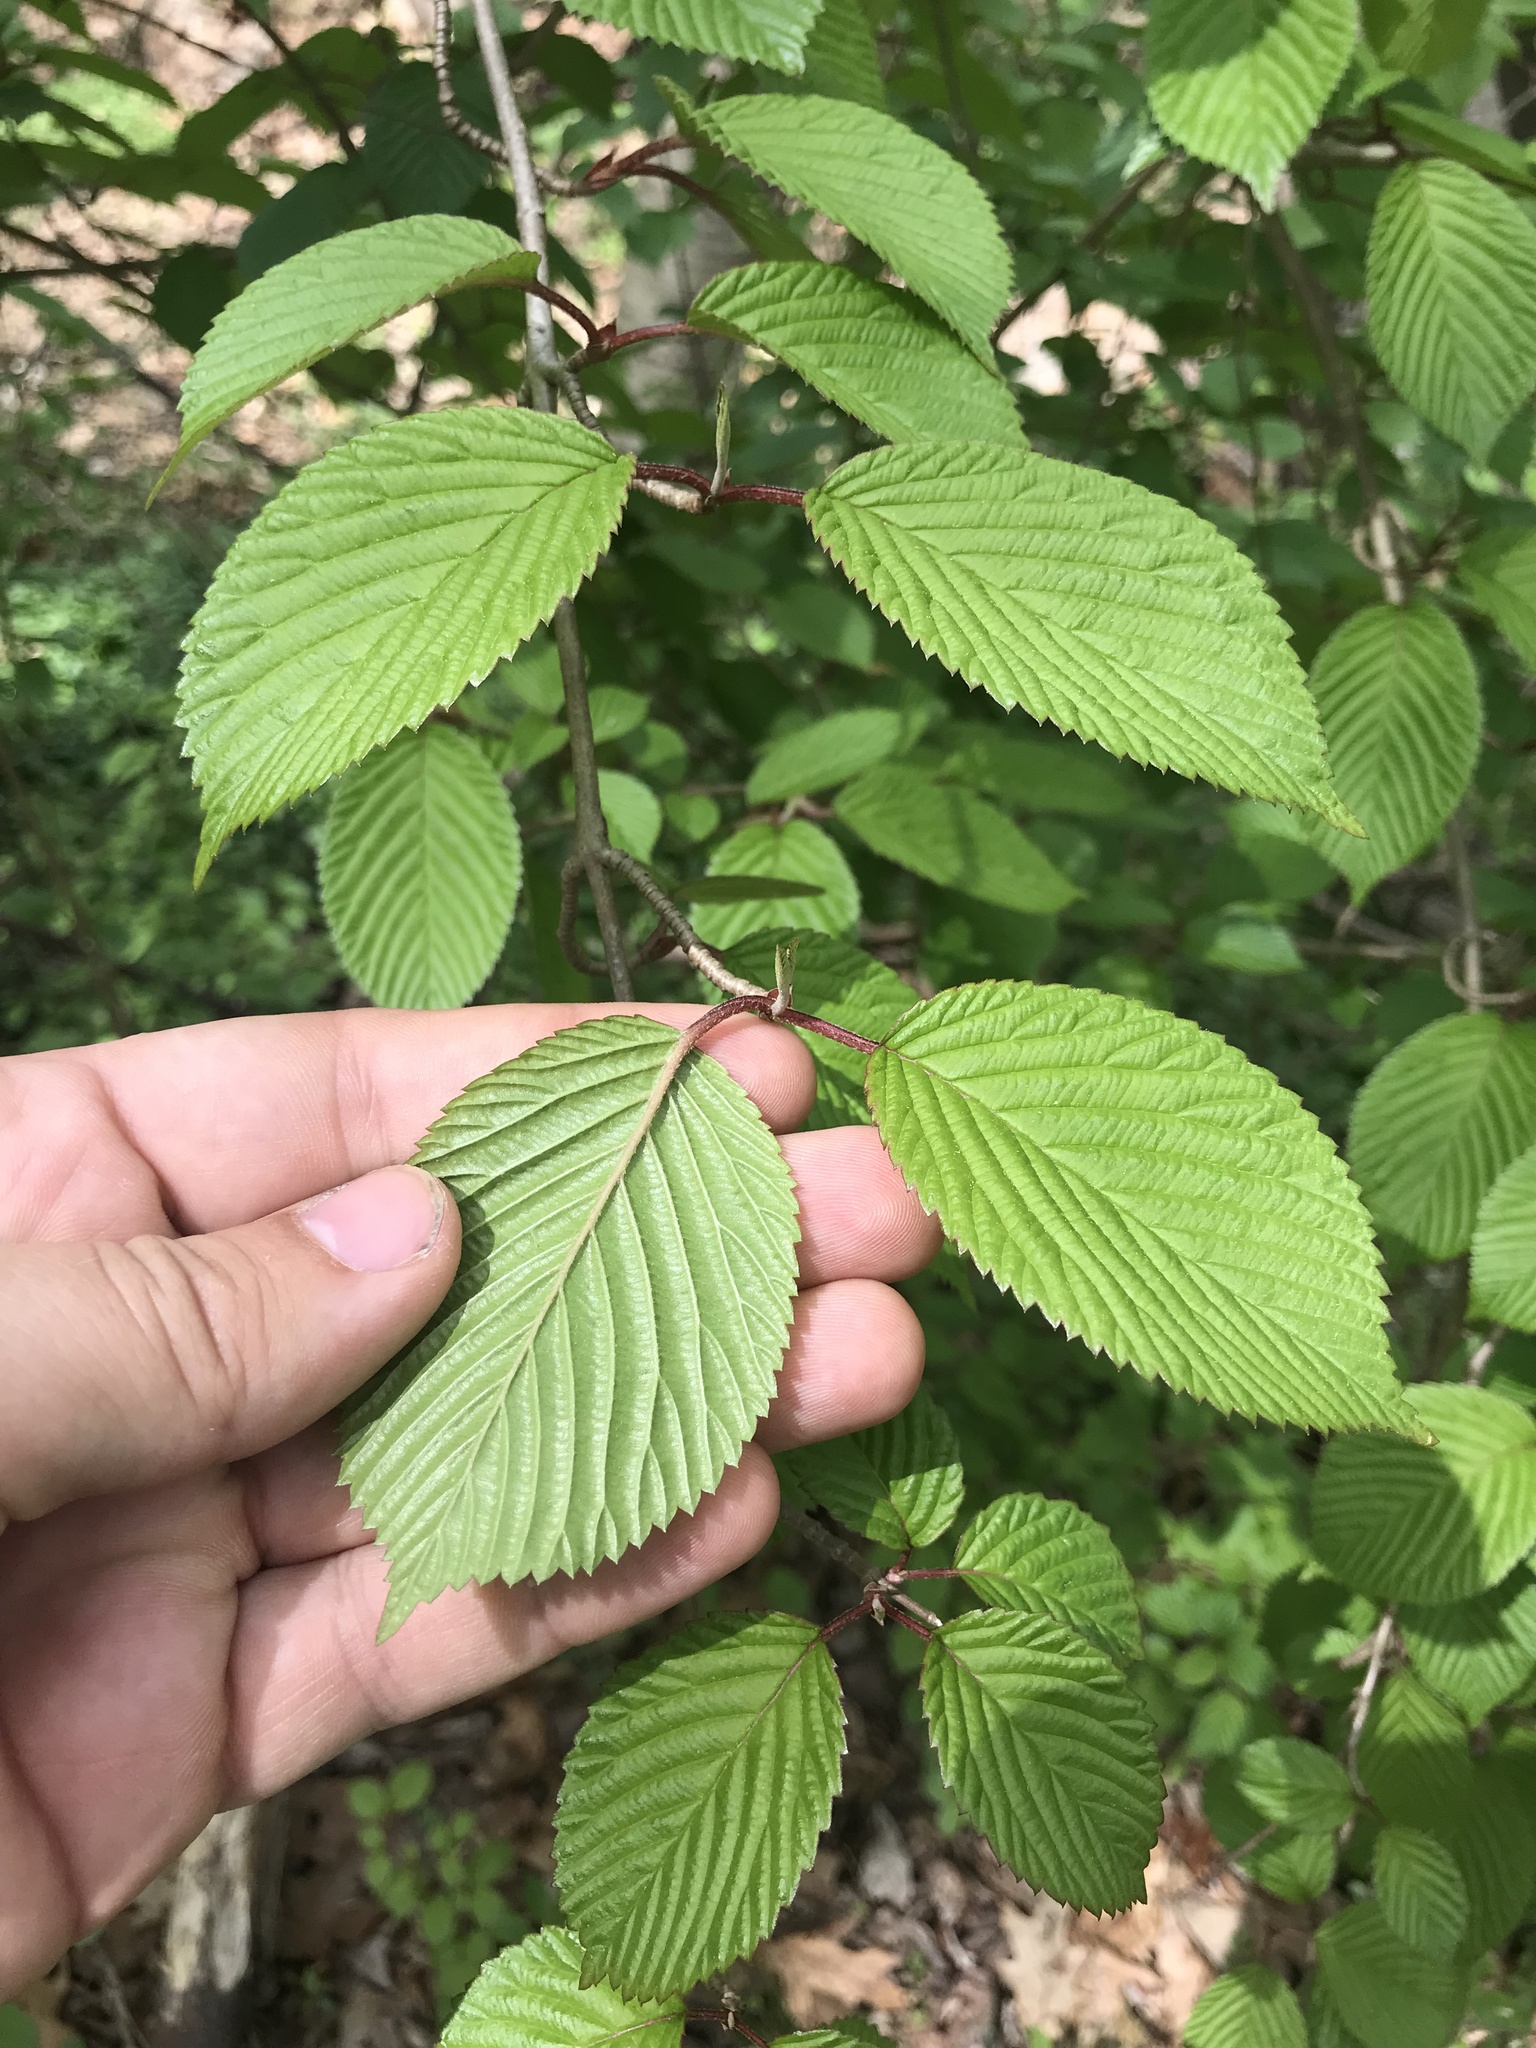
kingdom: Plantae
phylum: Tracheophyta
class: Magnoliopsida
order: Dipsacales
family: Viburnaceae
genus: Viburnum
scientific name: Viburnum plicatum
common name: Japanese snowball
